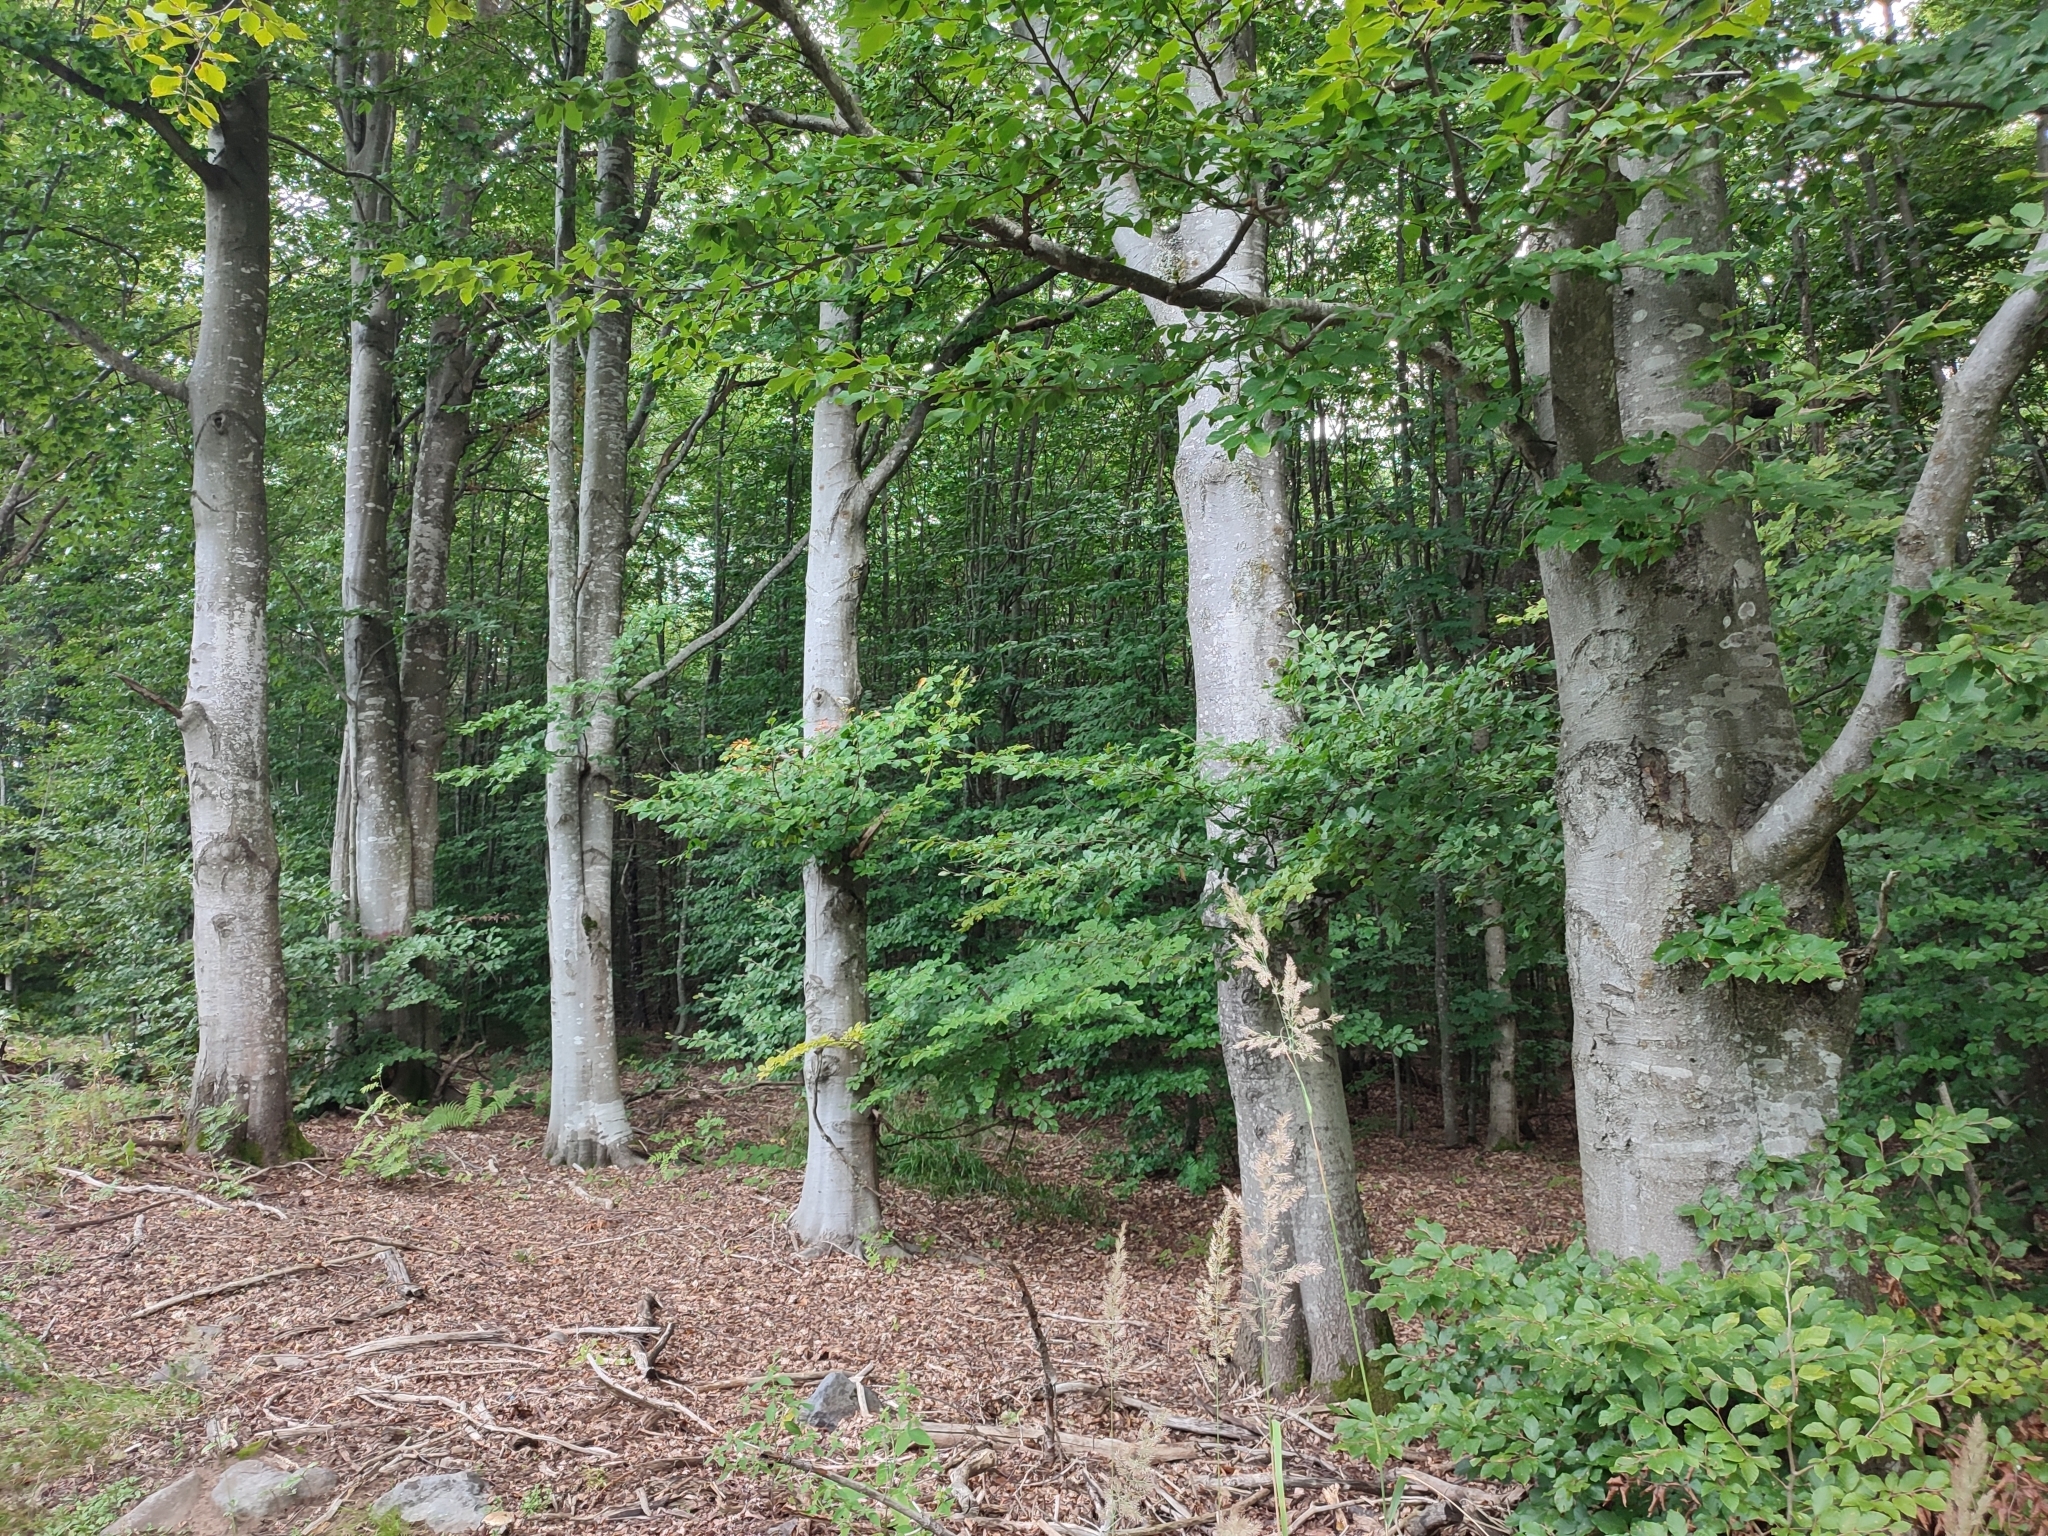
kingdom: Plantae
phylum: Tracheophyta
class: Magnoliopsida
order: Fagales
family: Fagaceae
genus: Fagus
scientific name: Fagus sylvatica
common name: Beech
